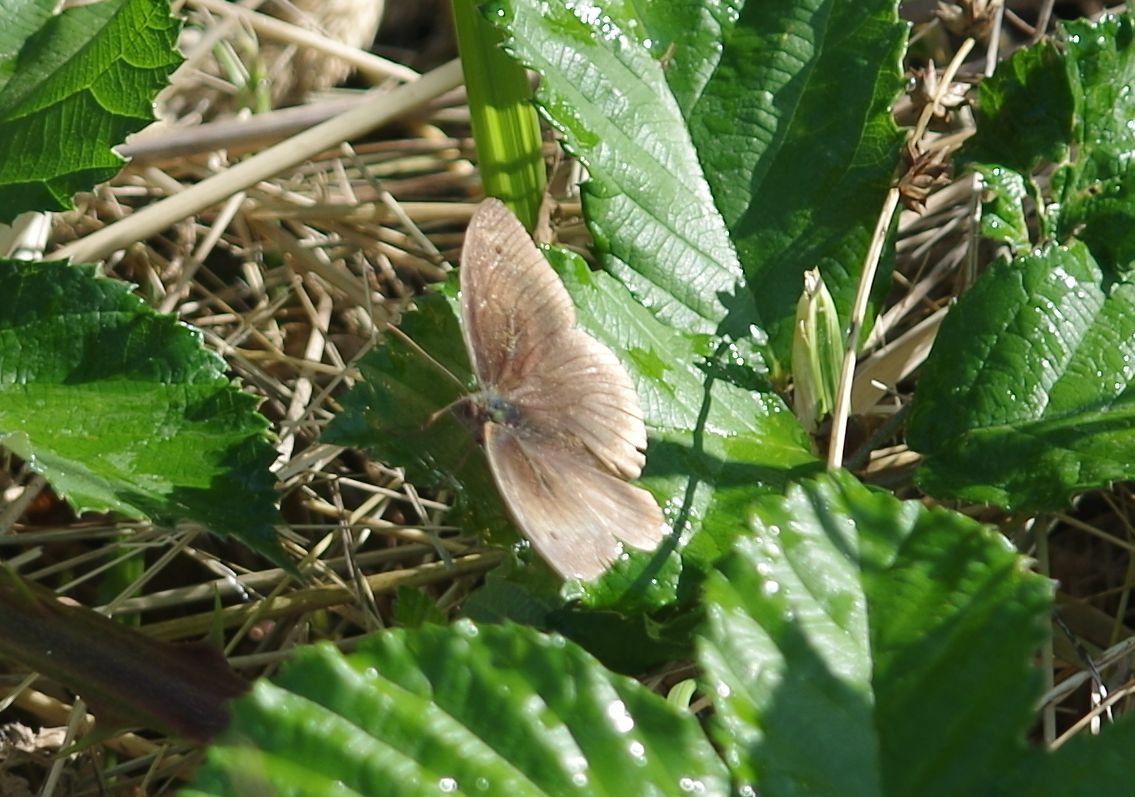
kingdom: Animalia
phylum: Arthropoda
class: Insecta
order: Lepidoptera
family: Nymphalidae
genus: Maniola
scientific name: Maniola jurtina
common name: Meadow brown
